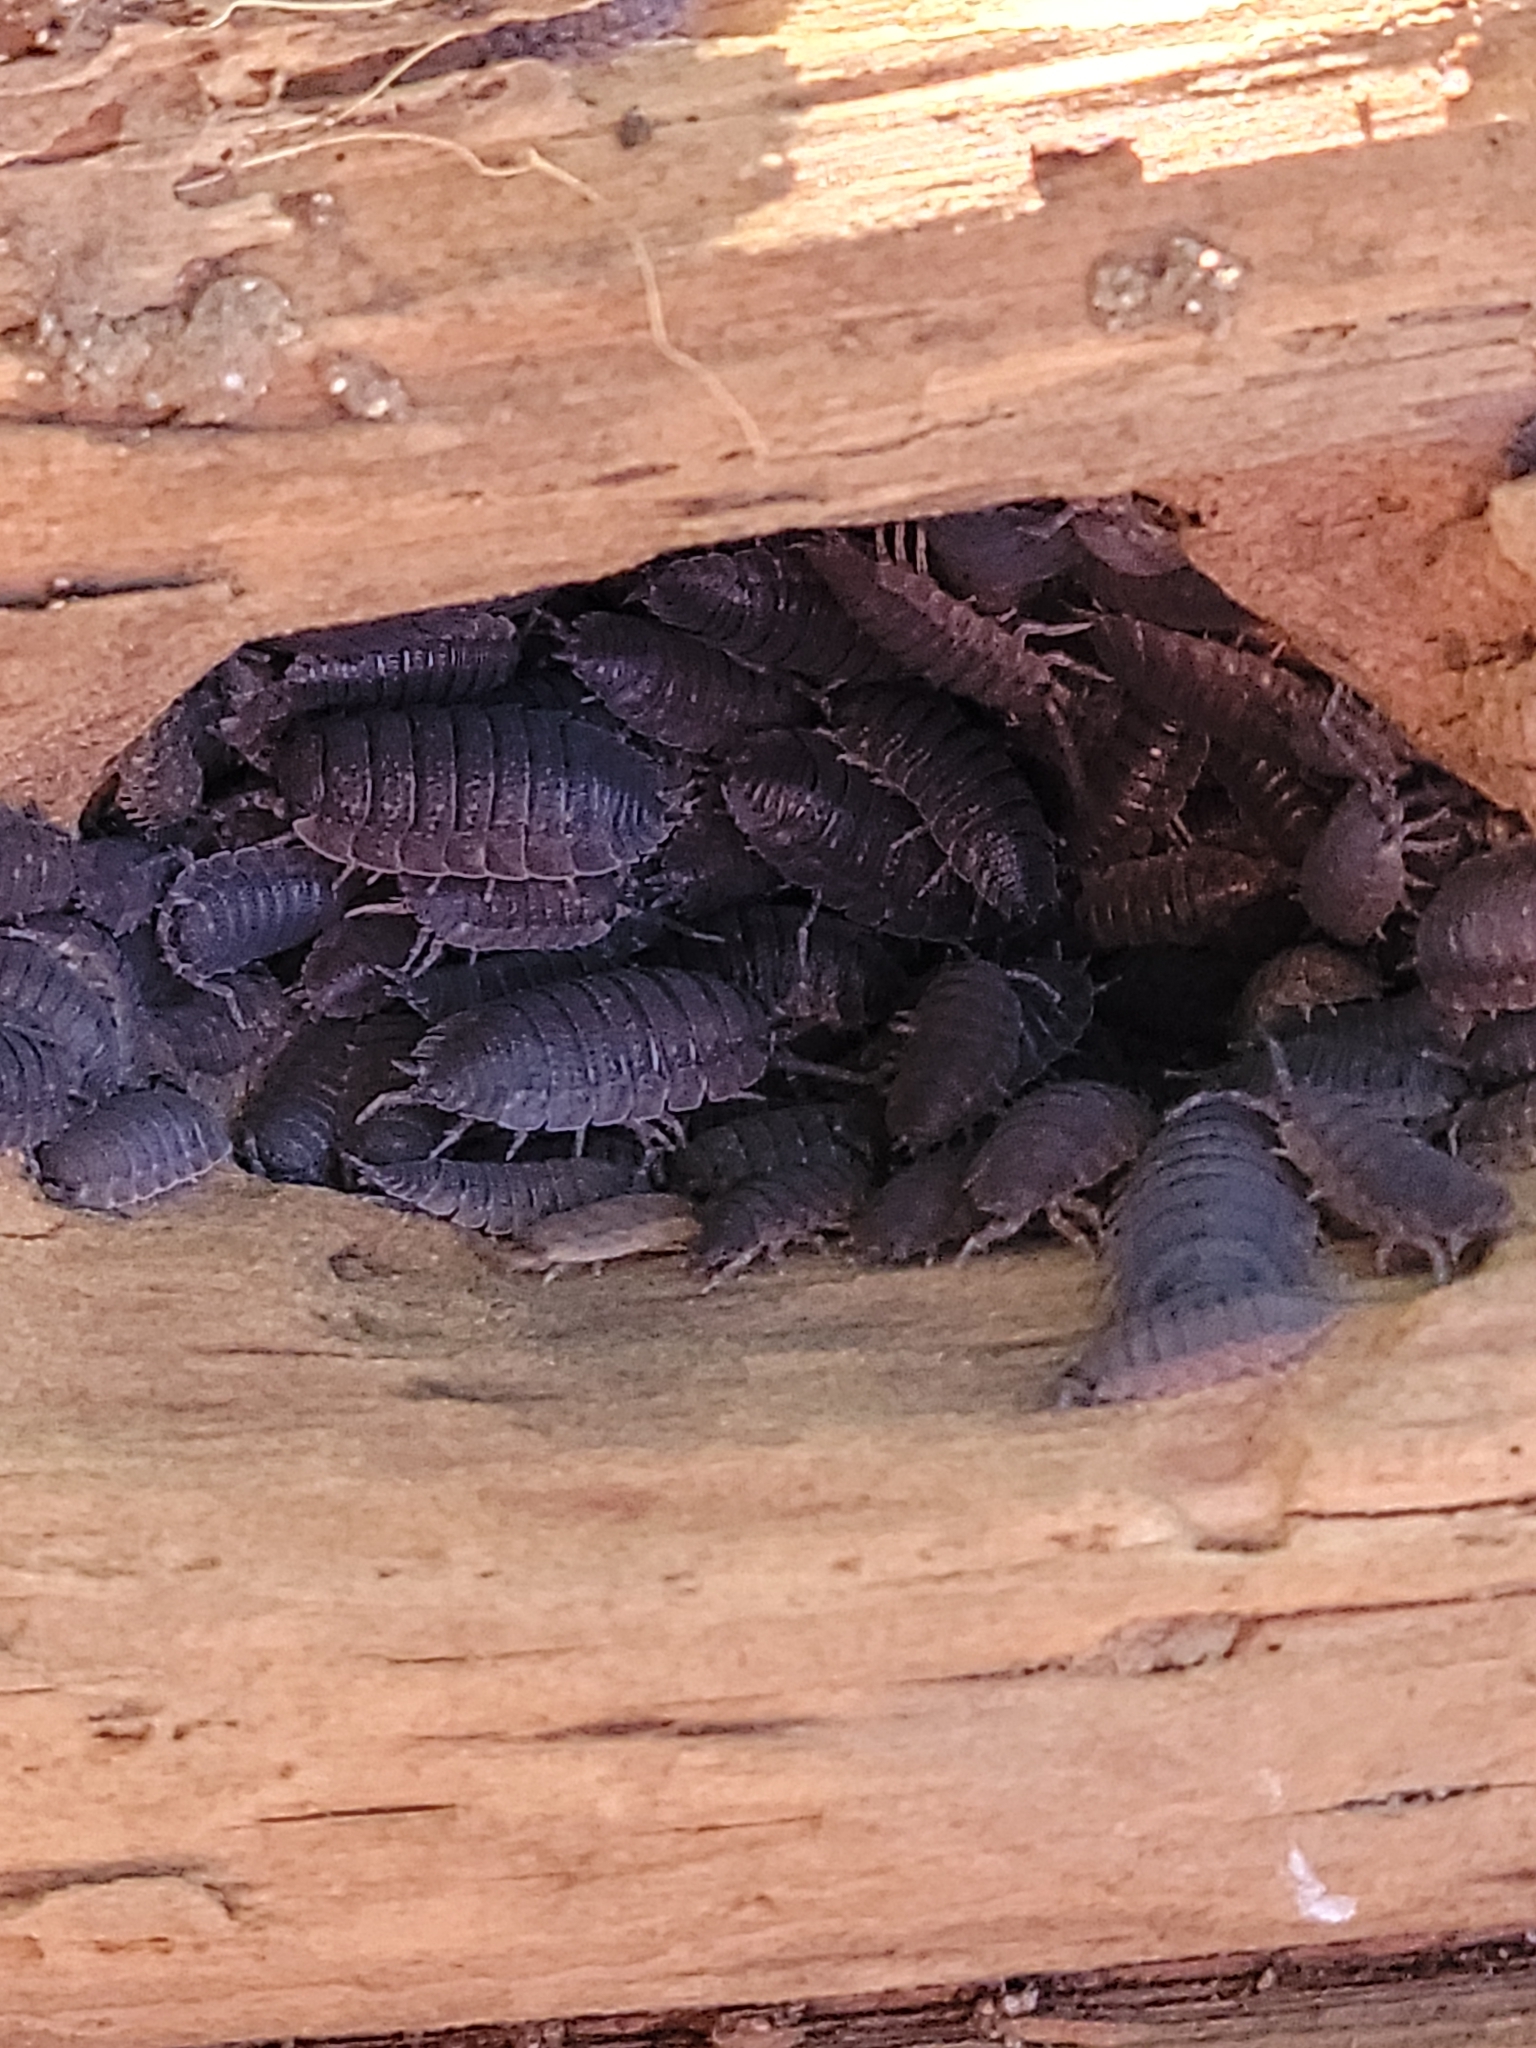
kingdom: Animalia
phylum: Arthropoda
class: Malacostraca
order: Isopoda
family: Porcellionidae
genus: Porcellio
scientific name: Porcellio scaber
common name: Common rough woodlouse
